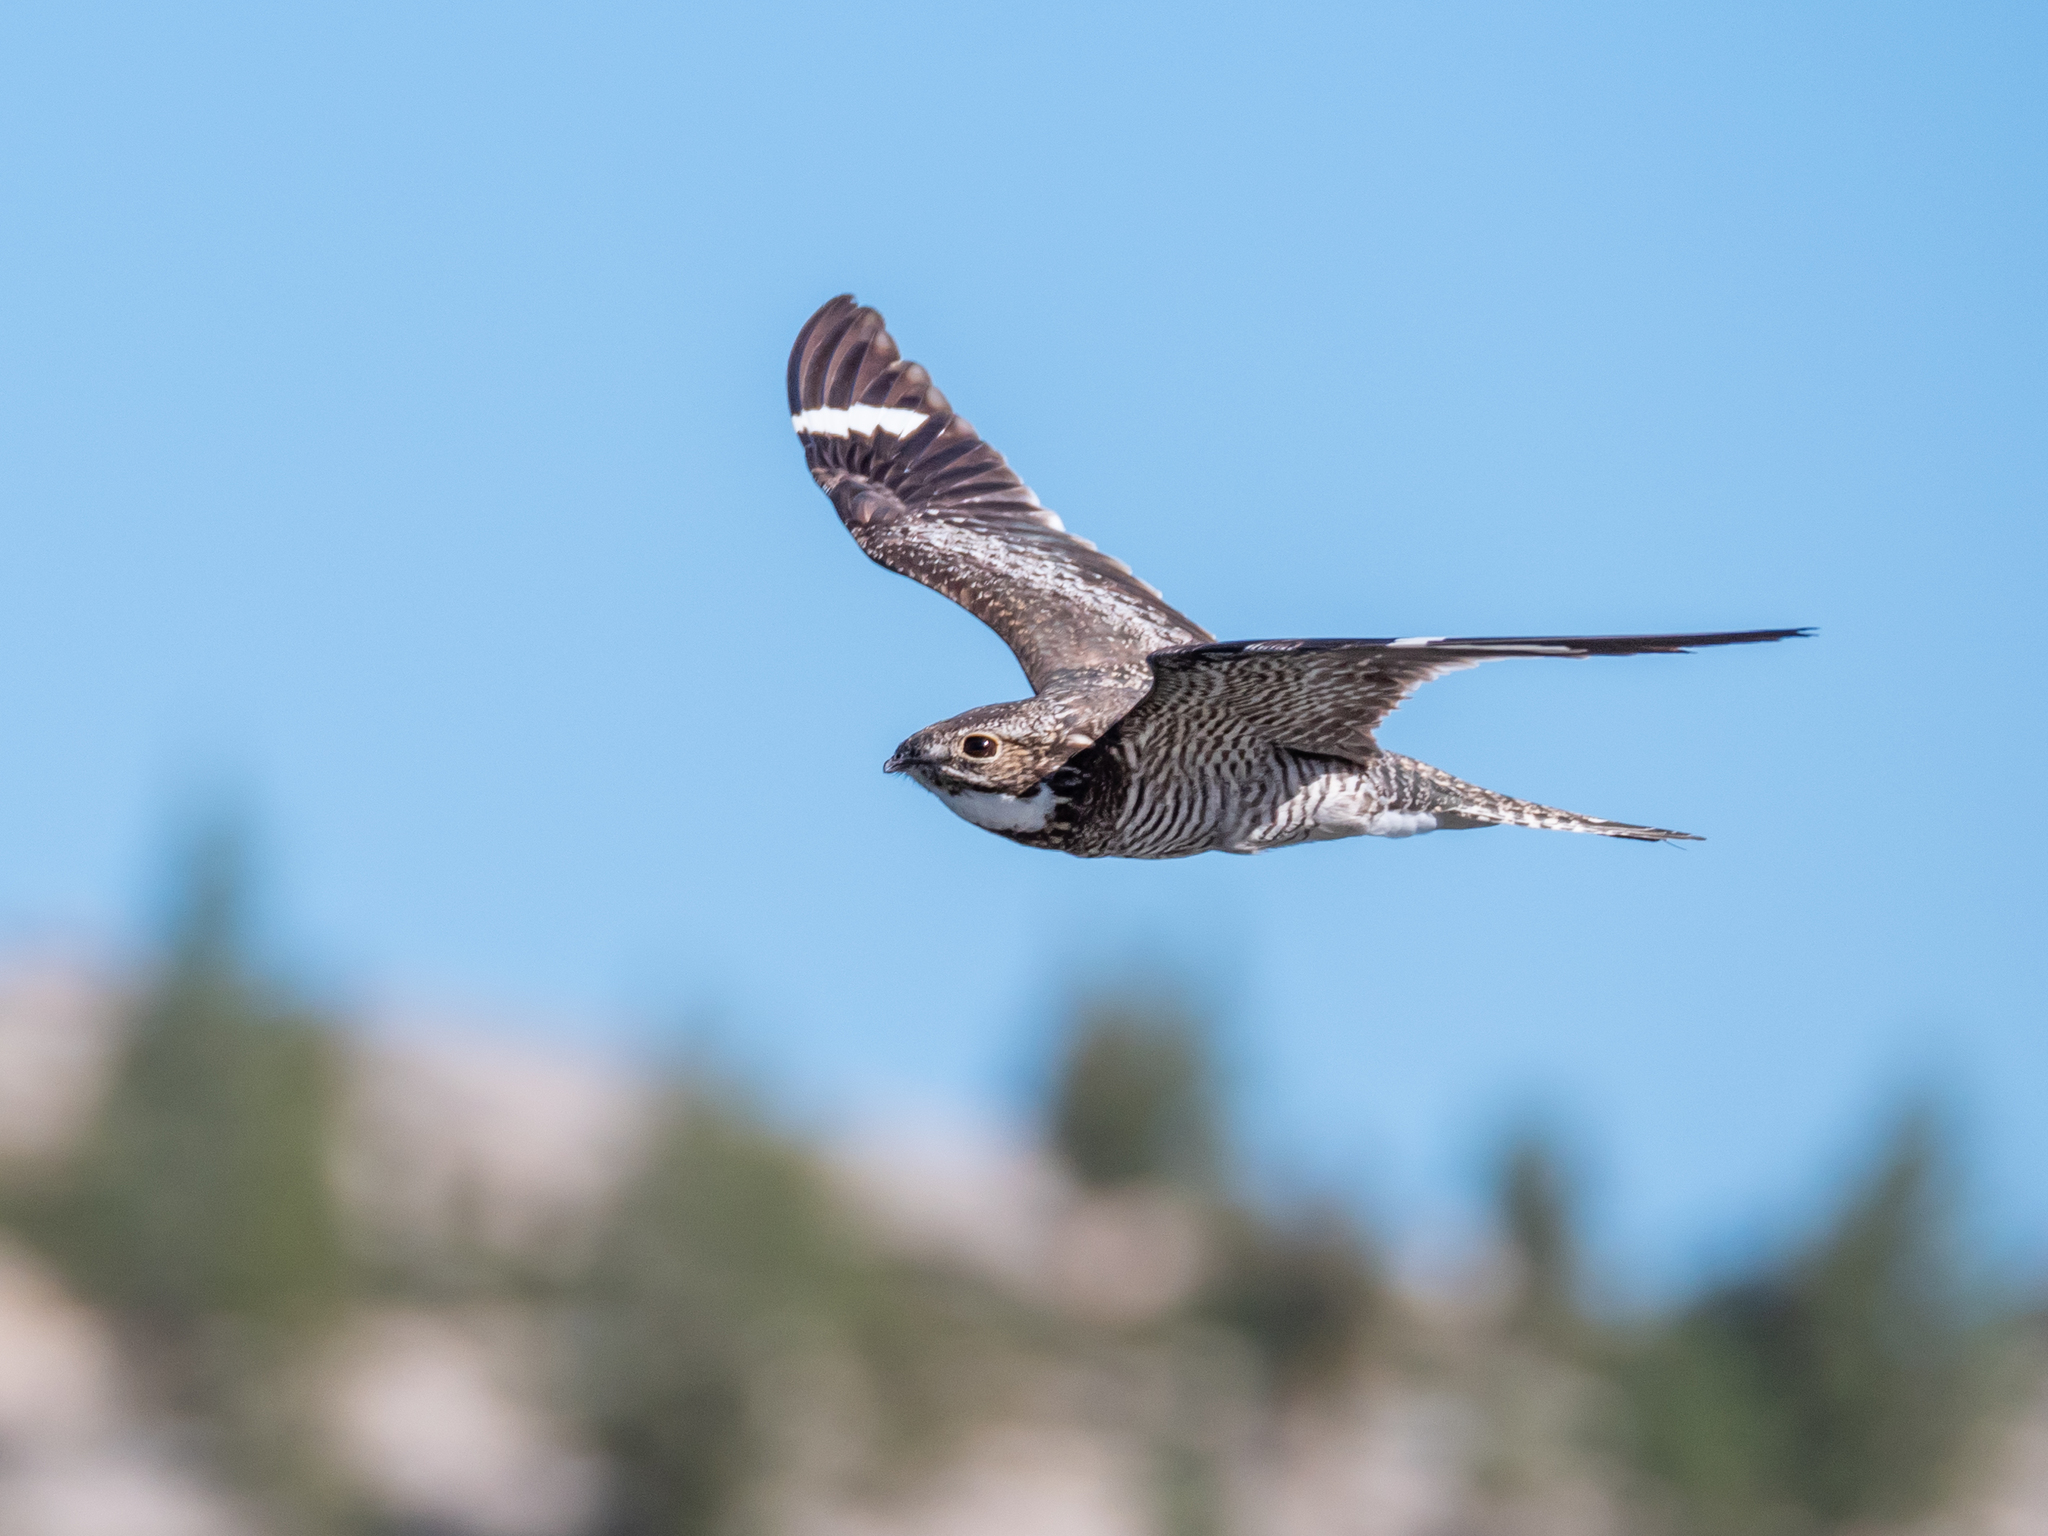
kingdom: Animalia
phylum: Chordata
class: Aves
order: Caprimulgiformes
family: Caprimulgidae
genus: Chordeiles
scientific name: Chordeiles minor
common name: Common nighthawk
